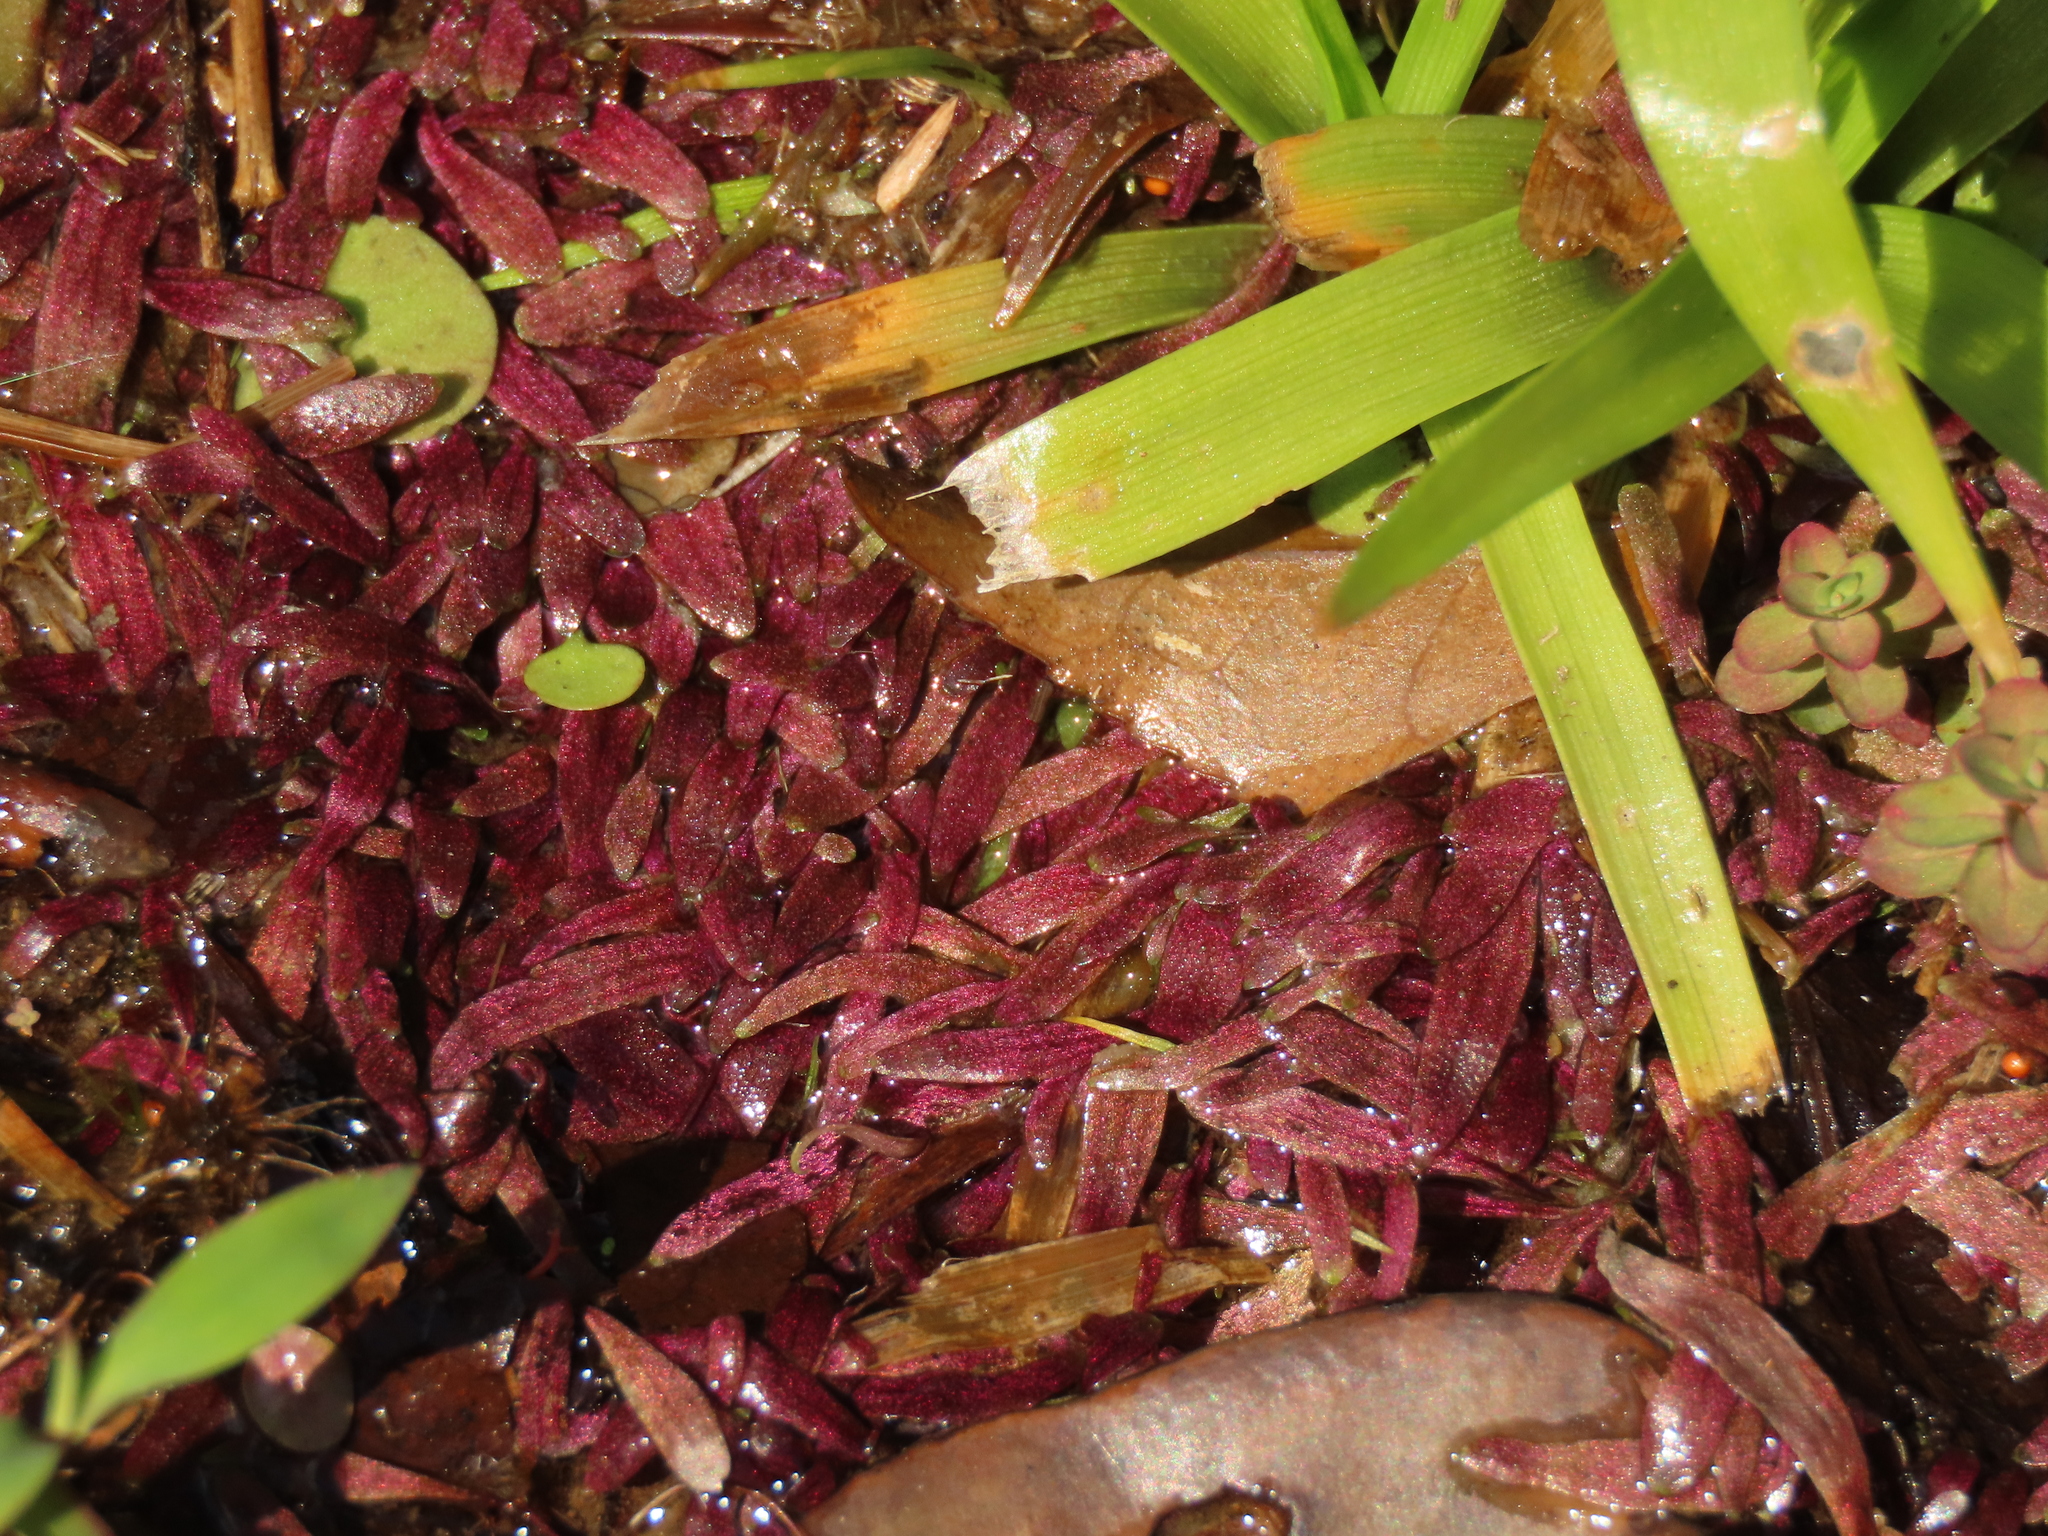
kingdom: Plantae
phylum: Tracheophyta
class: Magnoliopsida
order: Lamiales
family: Lentibulariaceae
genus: Utricularia
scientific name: Utricularia smithiana
